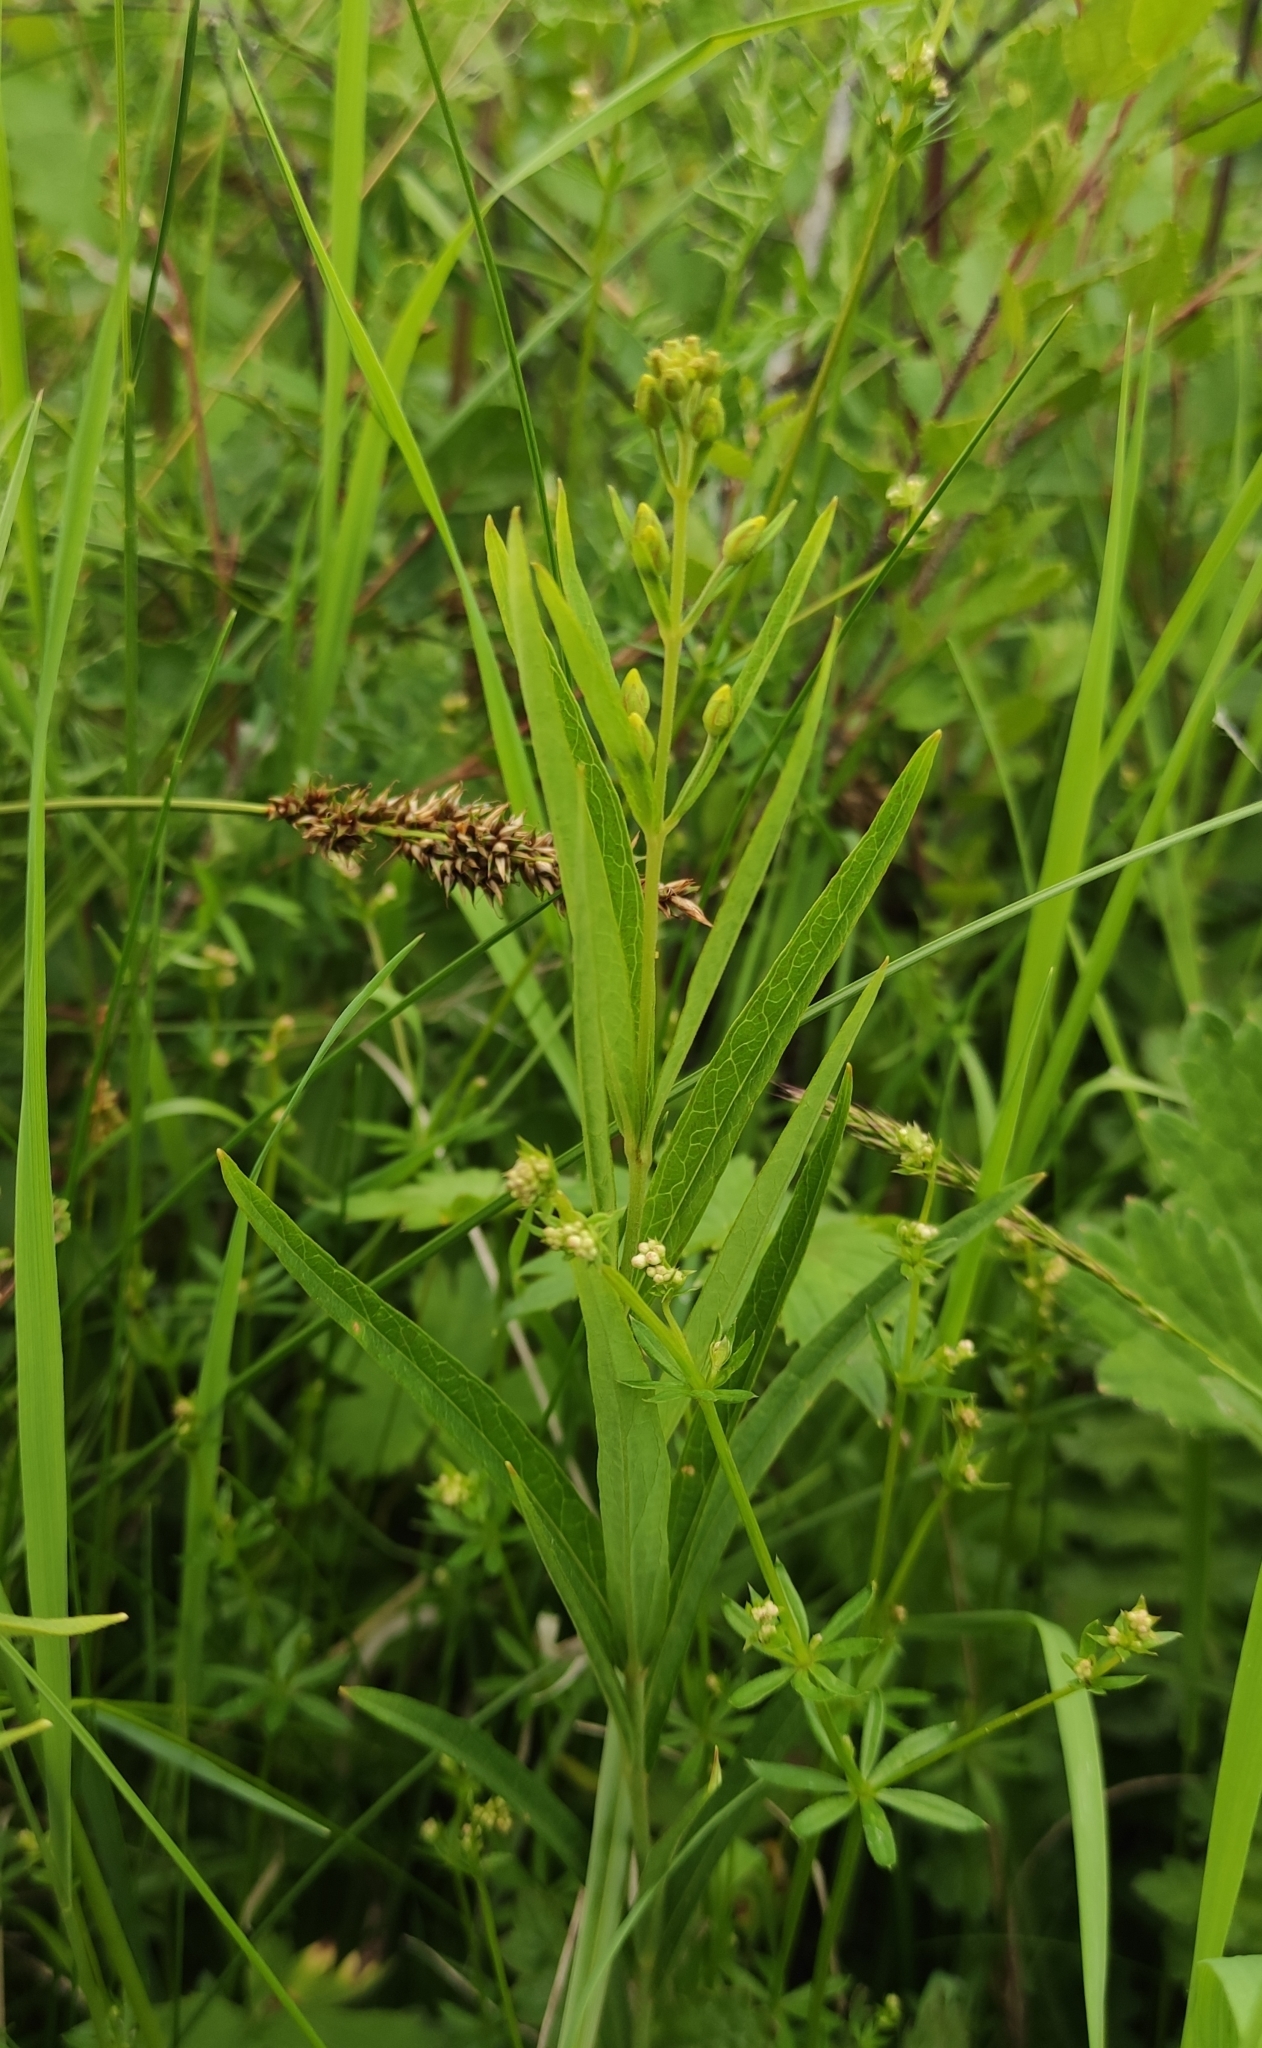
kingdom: Plantae
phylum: Tracheophyta
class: Magnoliopsida
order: Ericales
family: Primulaceae
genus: Lysimachia
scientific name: Lysimachia davurica
